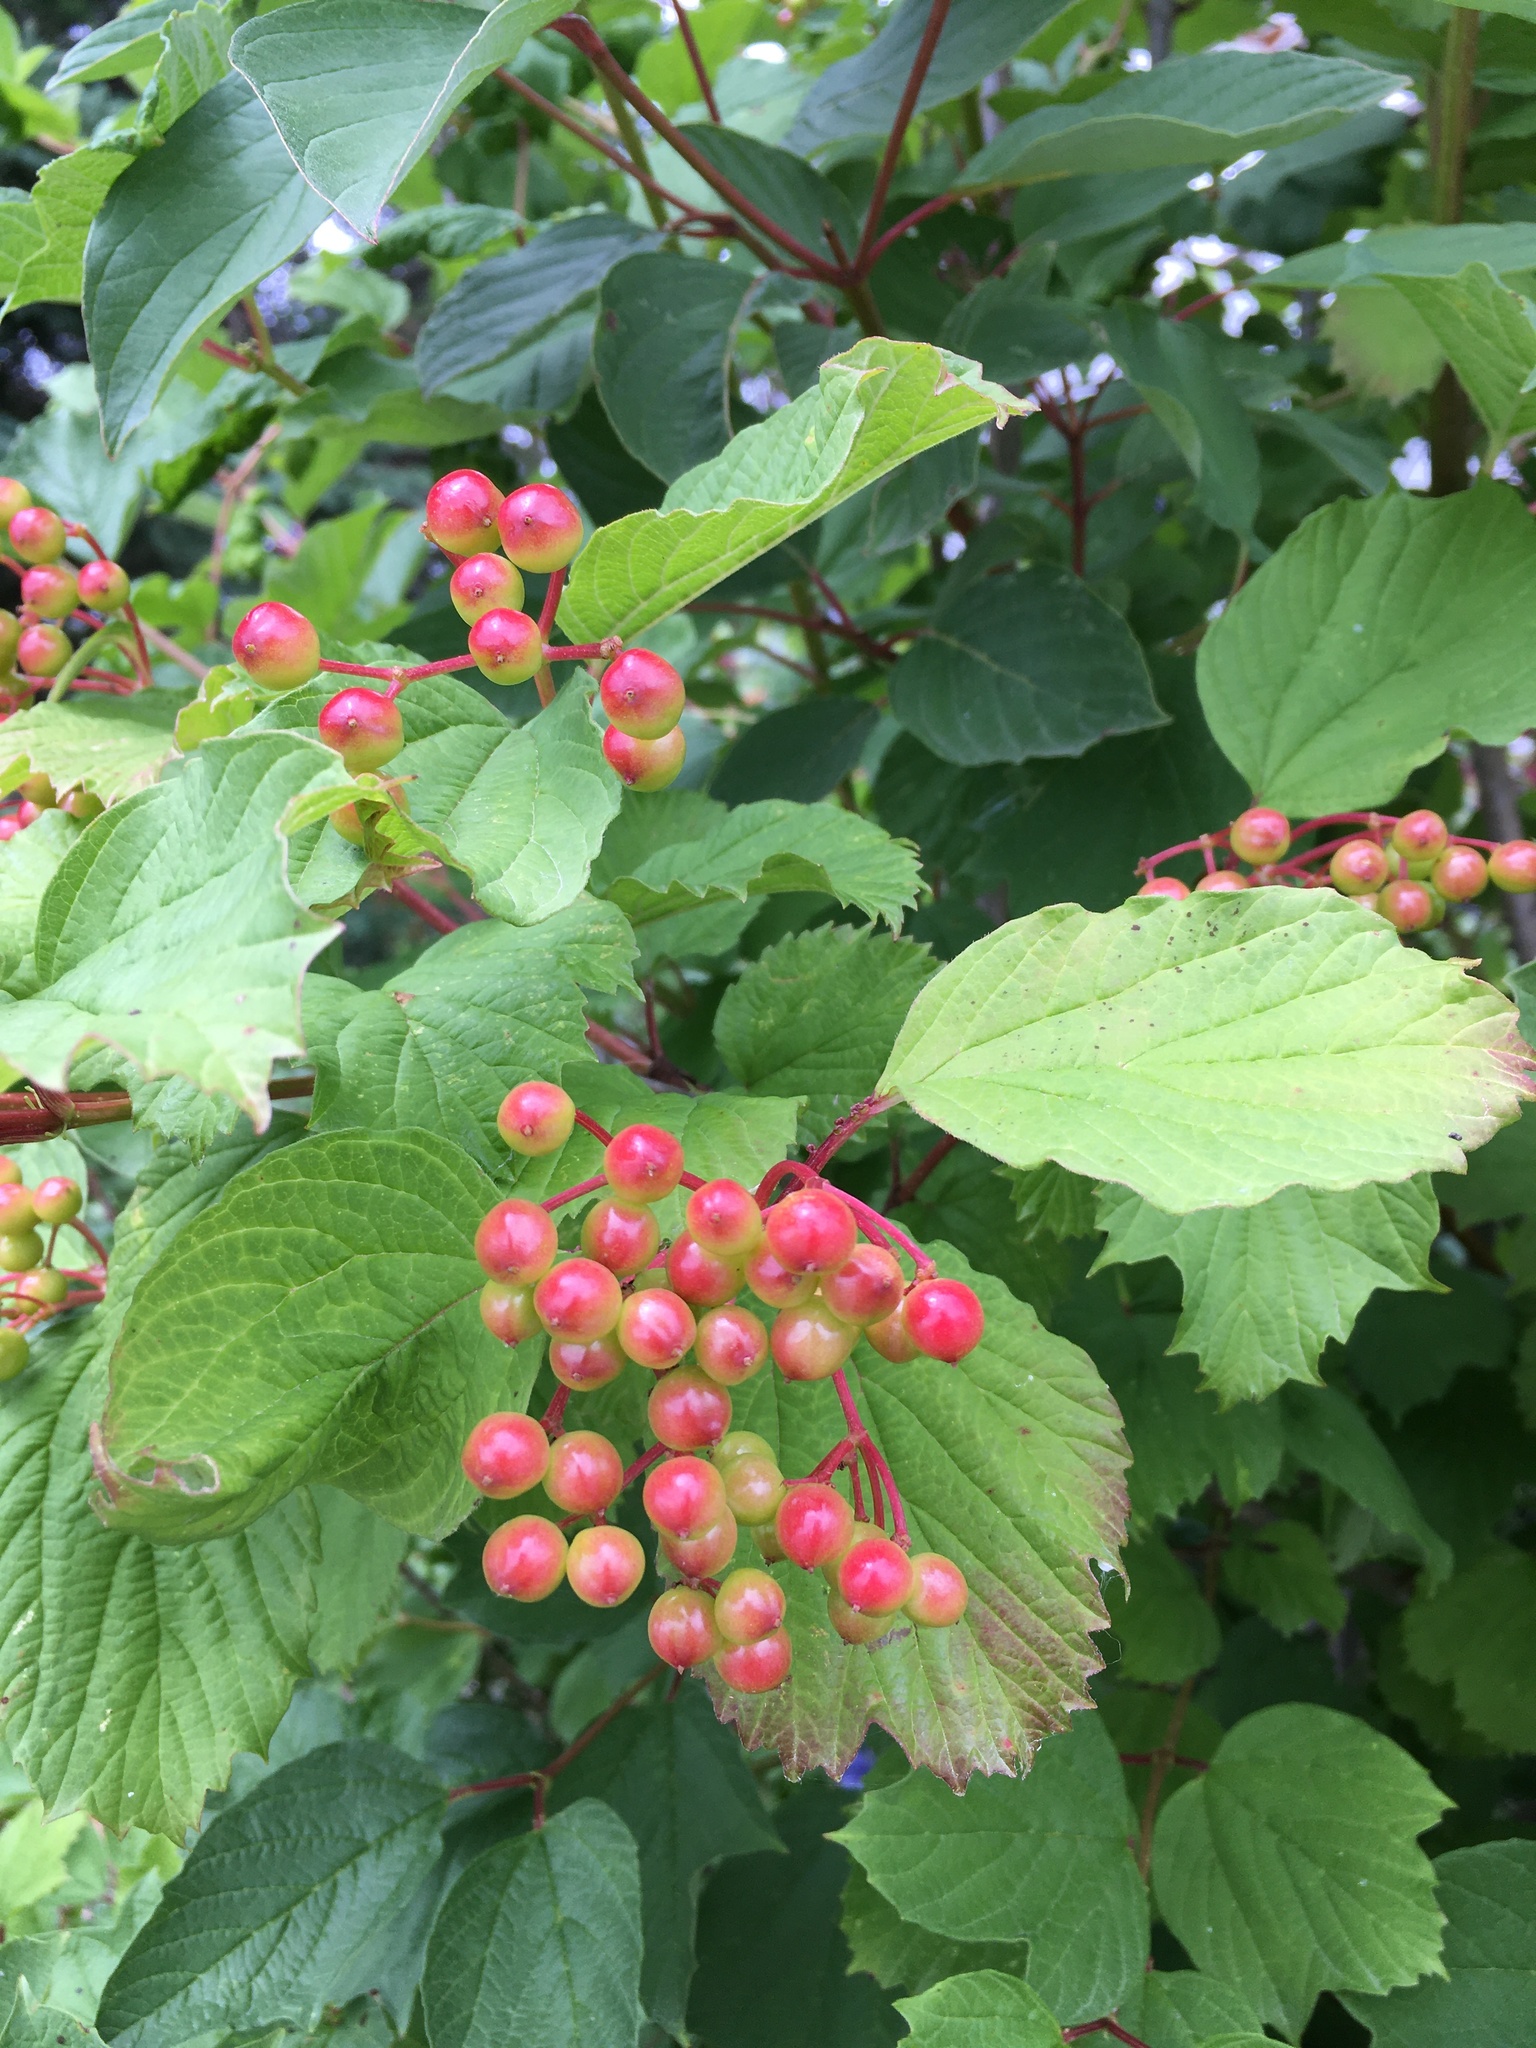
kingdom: Plantae
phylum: Tracheophyta
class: Magnoliopsida
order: Dipsacales
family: Viburnaceae
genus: Viburnum
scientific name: Viburnum opulus
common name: Guelder-rose
